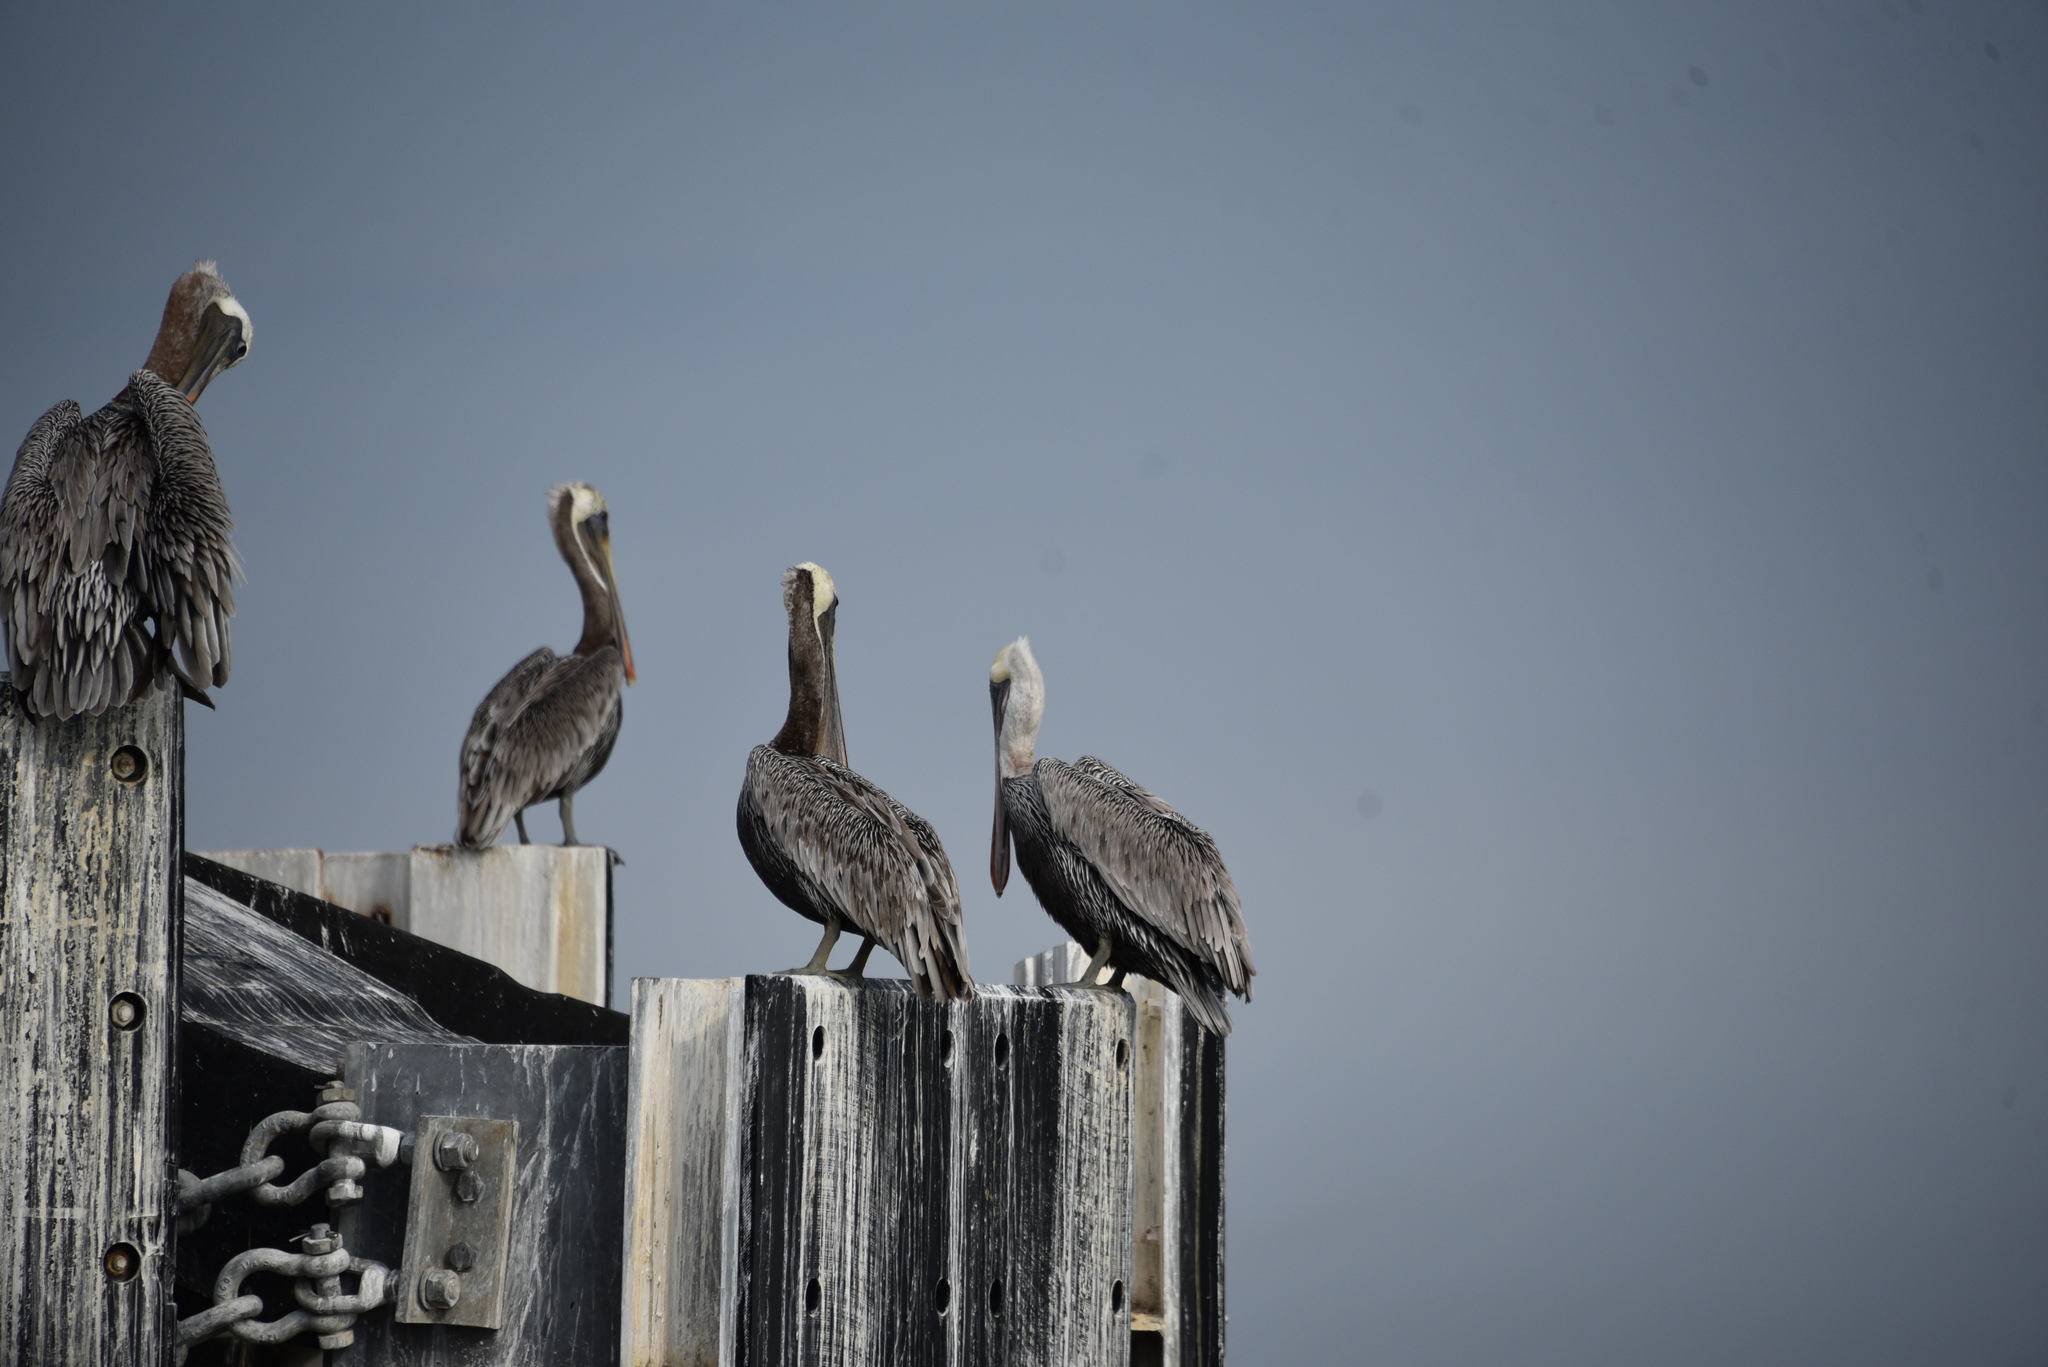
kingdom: Animalia
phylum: Chordata
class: Aves
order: Pelecaniformes
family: Pelecanidae
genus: Pelecanus
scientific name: Pelecanus occidentalis
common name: Brown pelican
